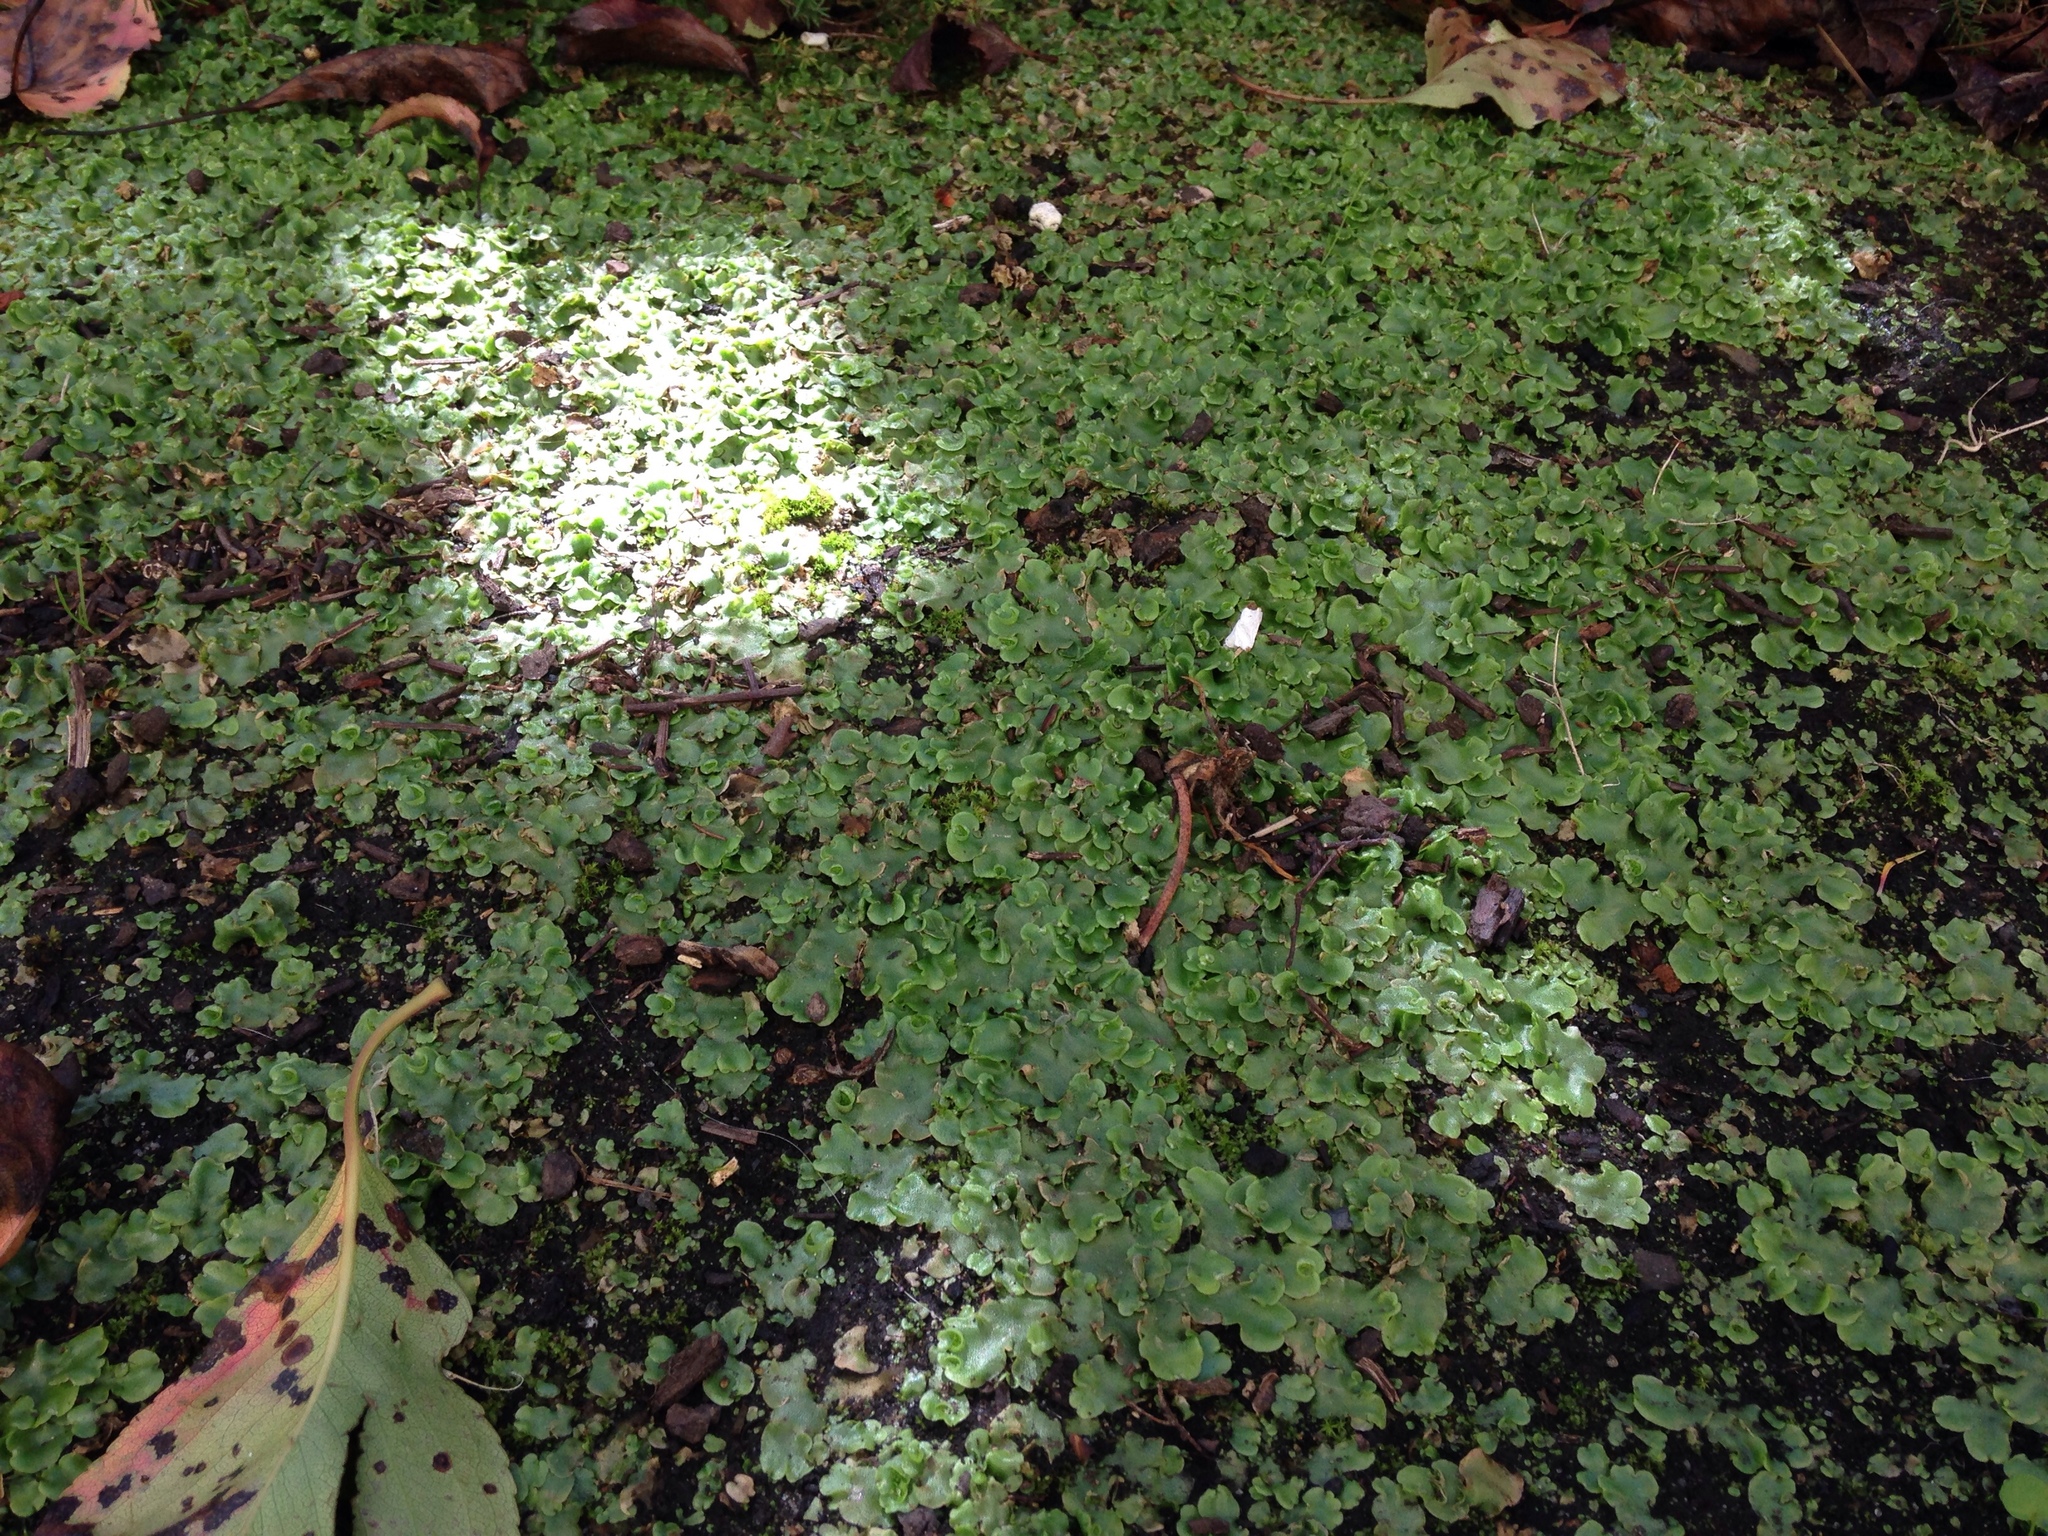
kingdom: Plantae
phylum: Marchantiophyta
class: Marchantiopsida
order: Lunulariales
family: Lunulariaceae
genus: Lunularia
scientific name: Lunularia cruciata
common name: Crescent-cup liverwort
